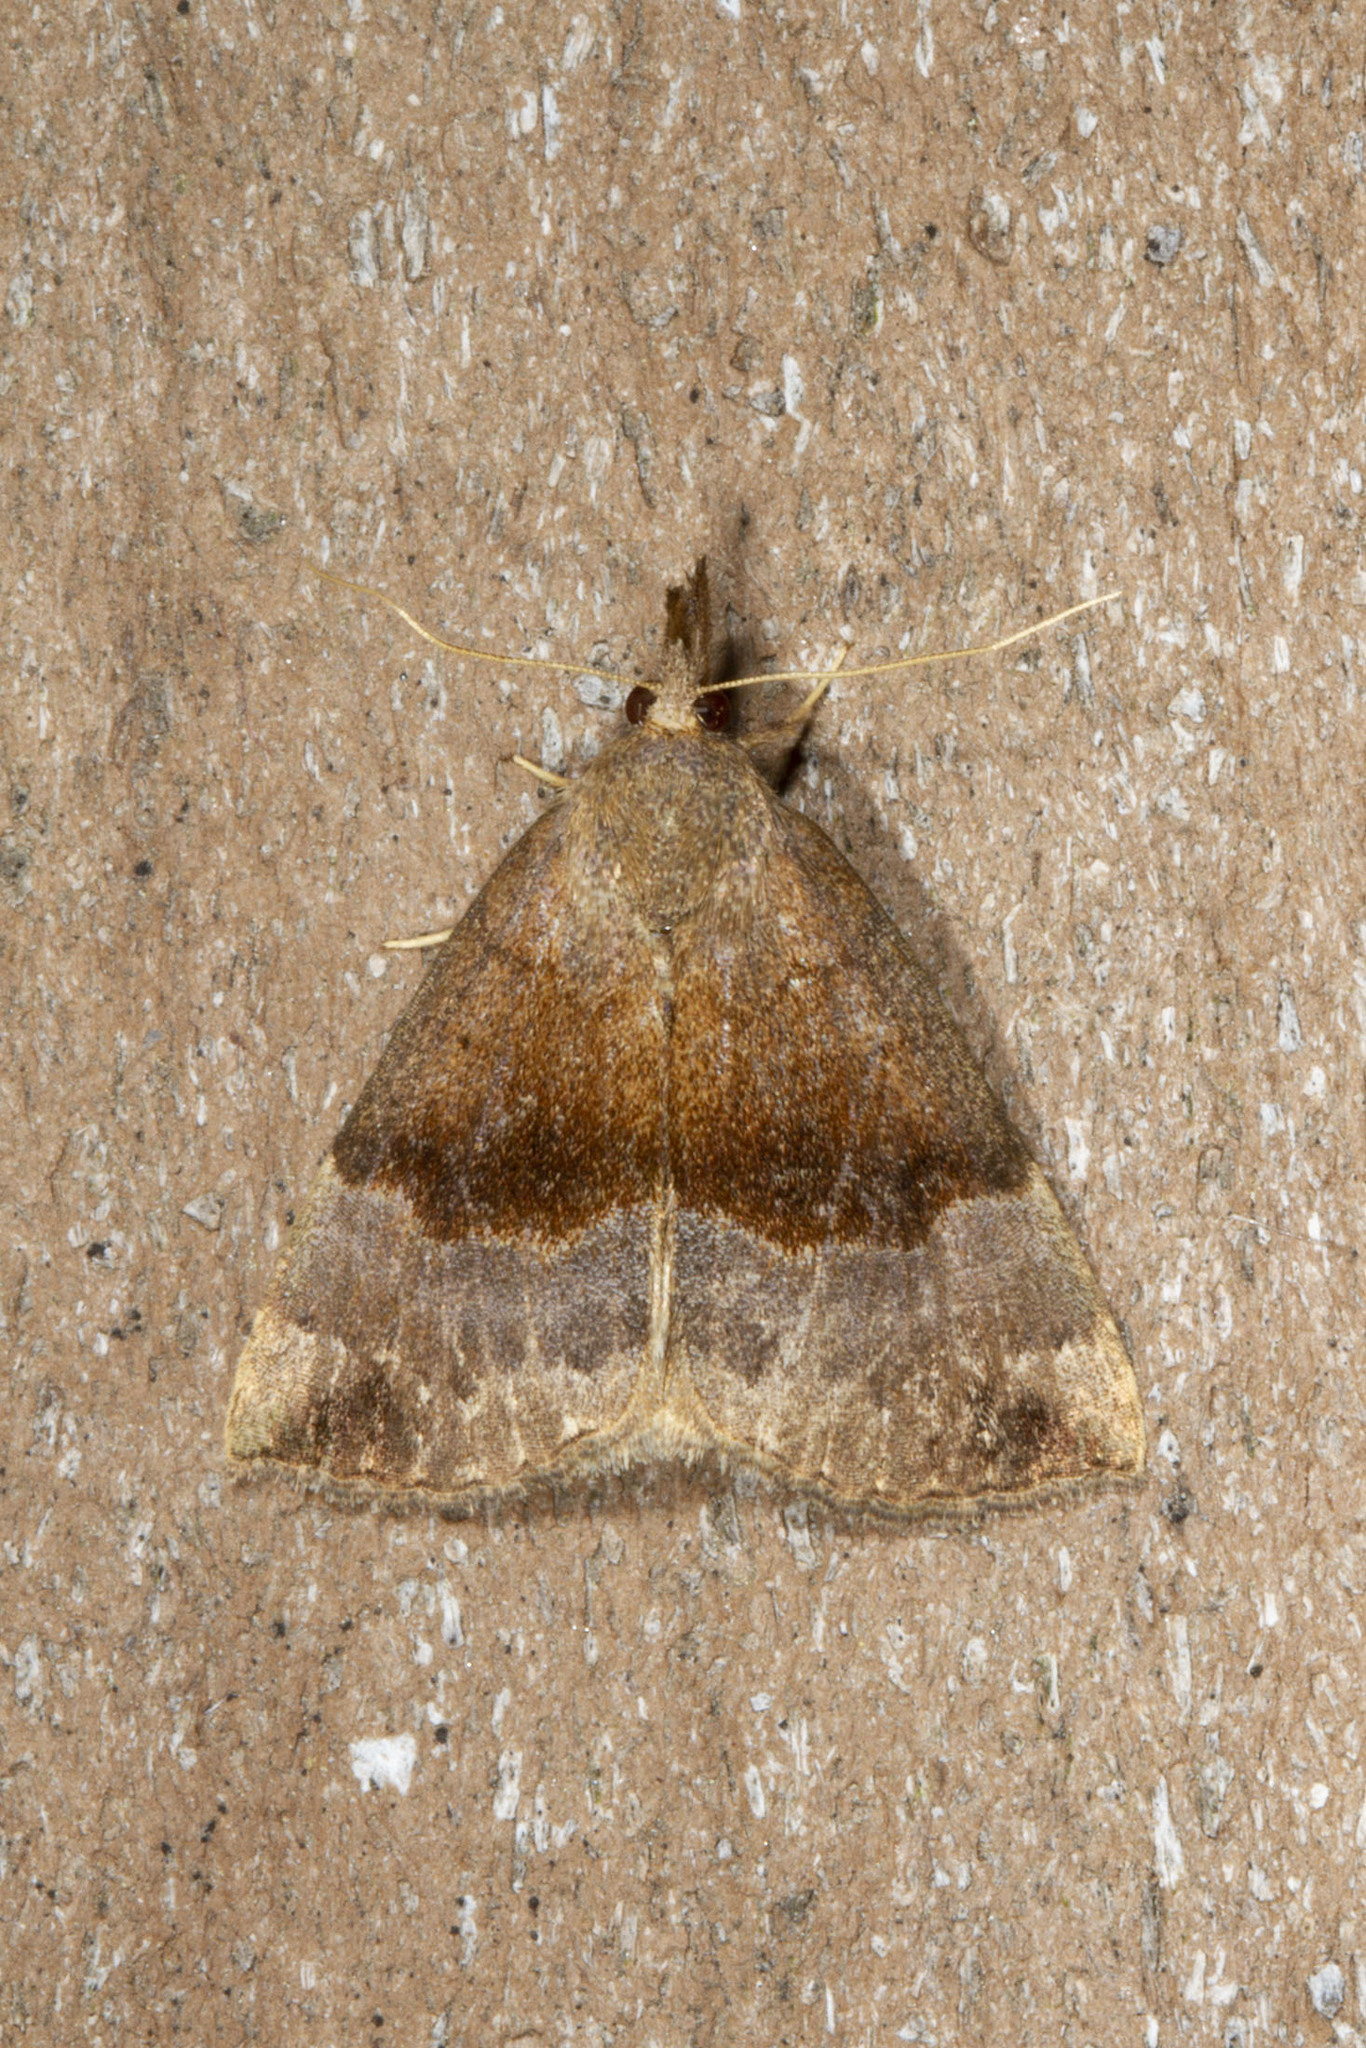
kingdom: Animalia
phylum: Arthropoda
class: Insecta
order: Lepidoptera
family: Erebidae
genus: Hypena
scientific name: Hypena madefactalis
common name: Gray-edged snout
